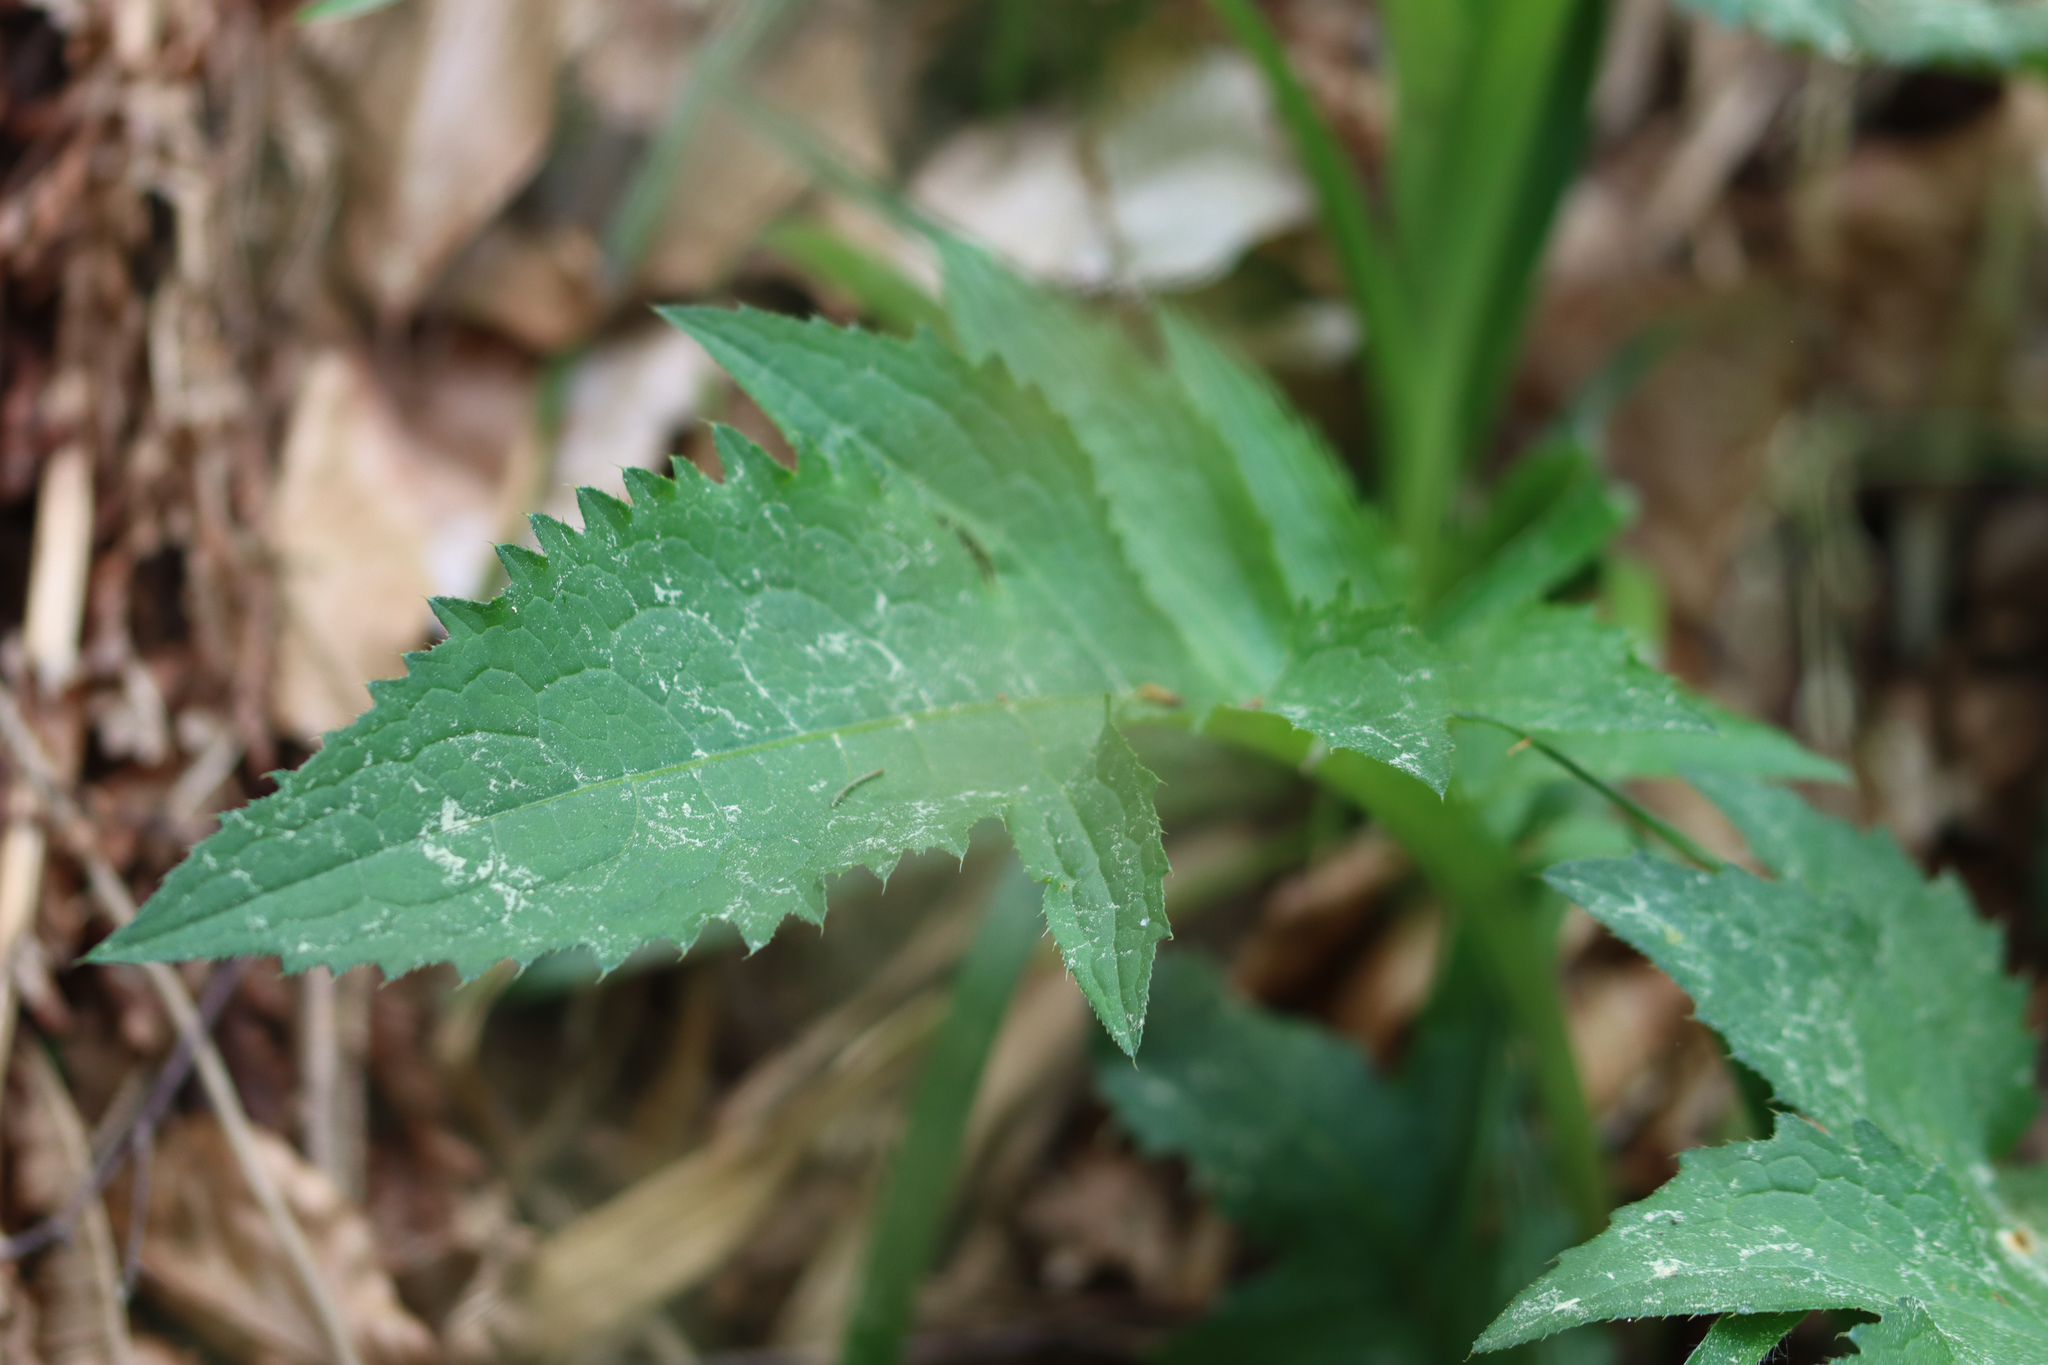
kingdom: Plantae
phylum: Tracheophyta
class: Magnoliopsida
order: Asterales
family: Asteraceae
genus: Cirsium
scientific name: Cirsium oleraceum
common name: Cabbage thistle
